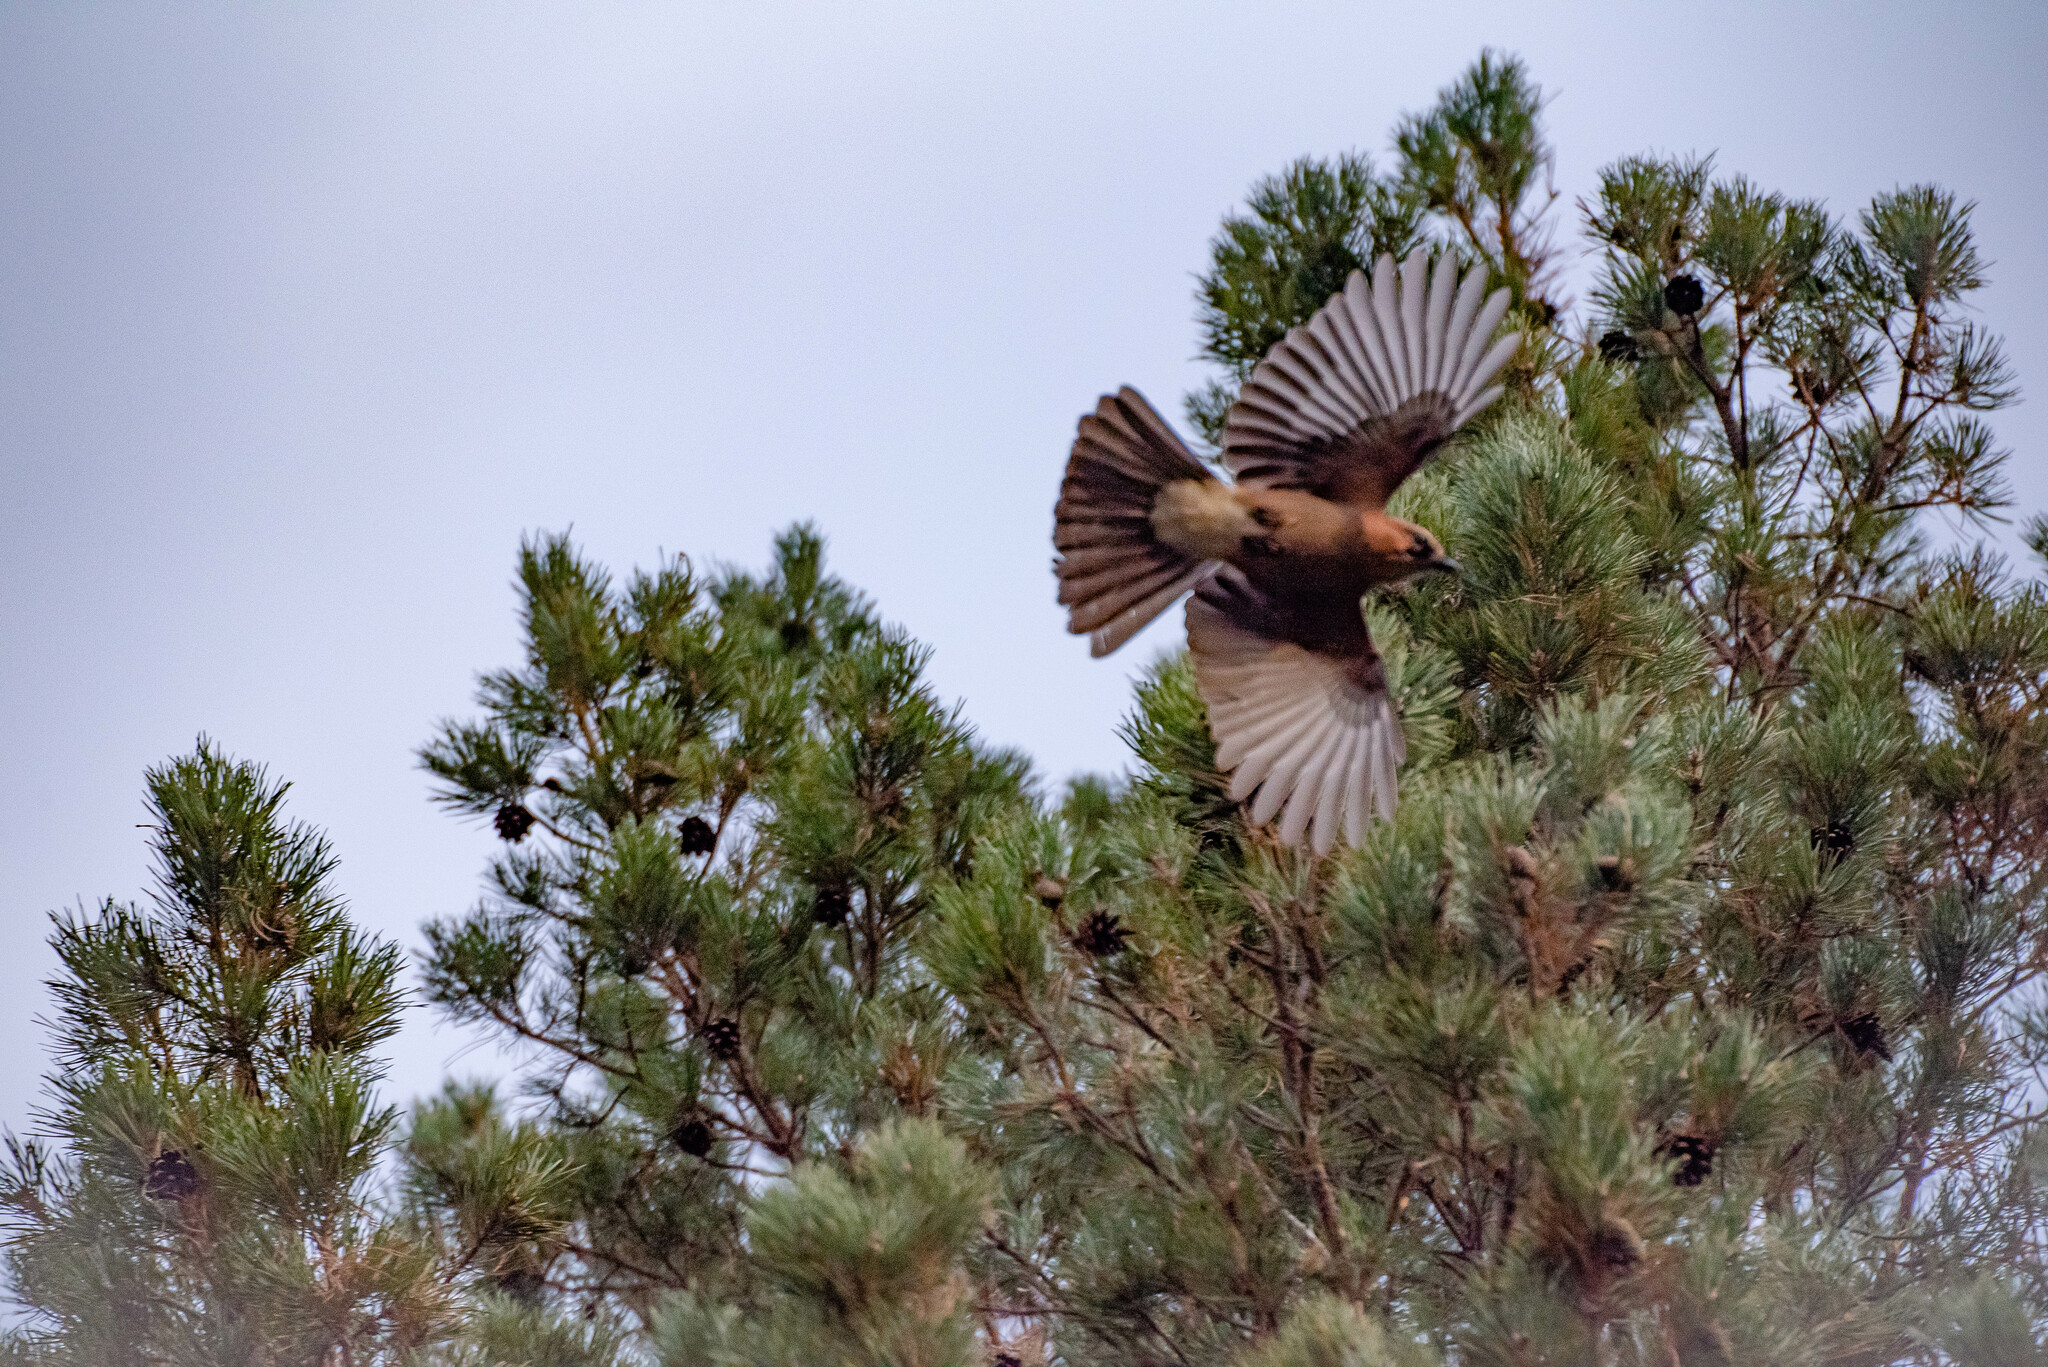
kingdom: Animalia
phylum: Chordata
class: Aves
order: Passeriformes
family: Corvidae
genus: Garrulus
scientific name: Garrulus glandarius
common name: Eurasian jay
